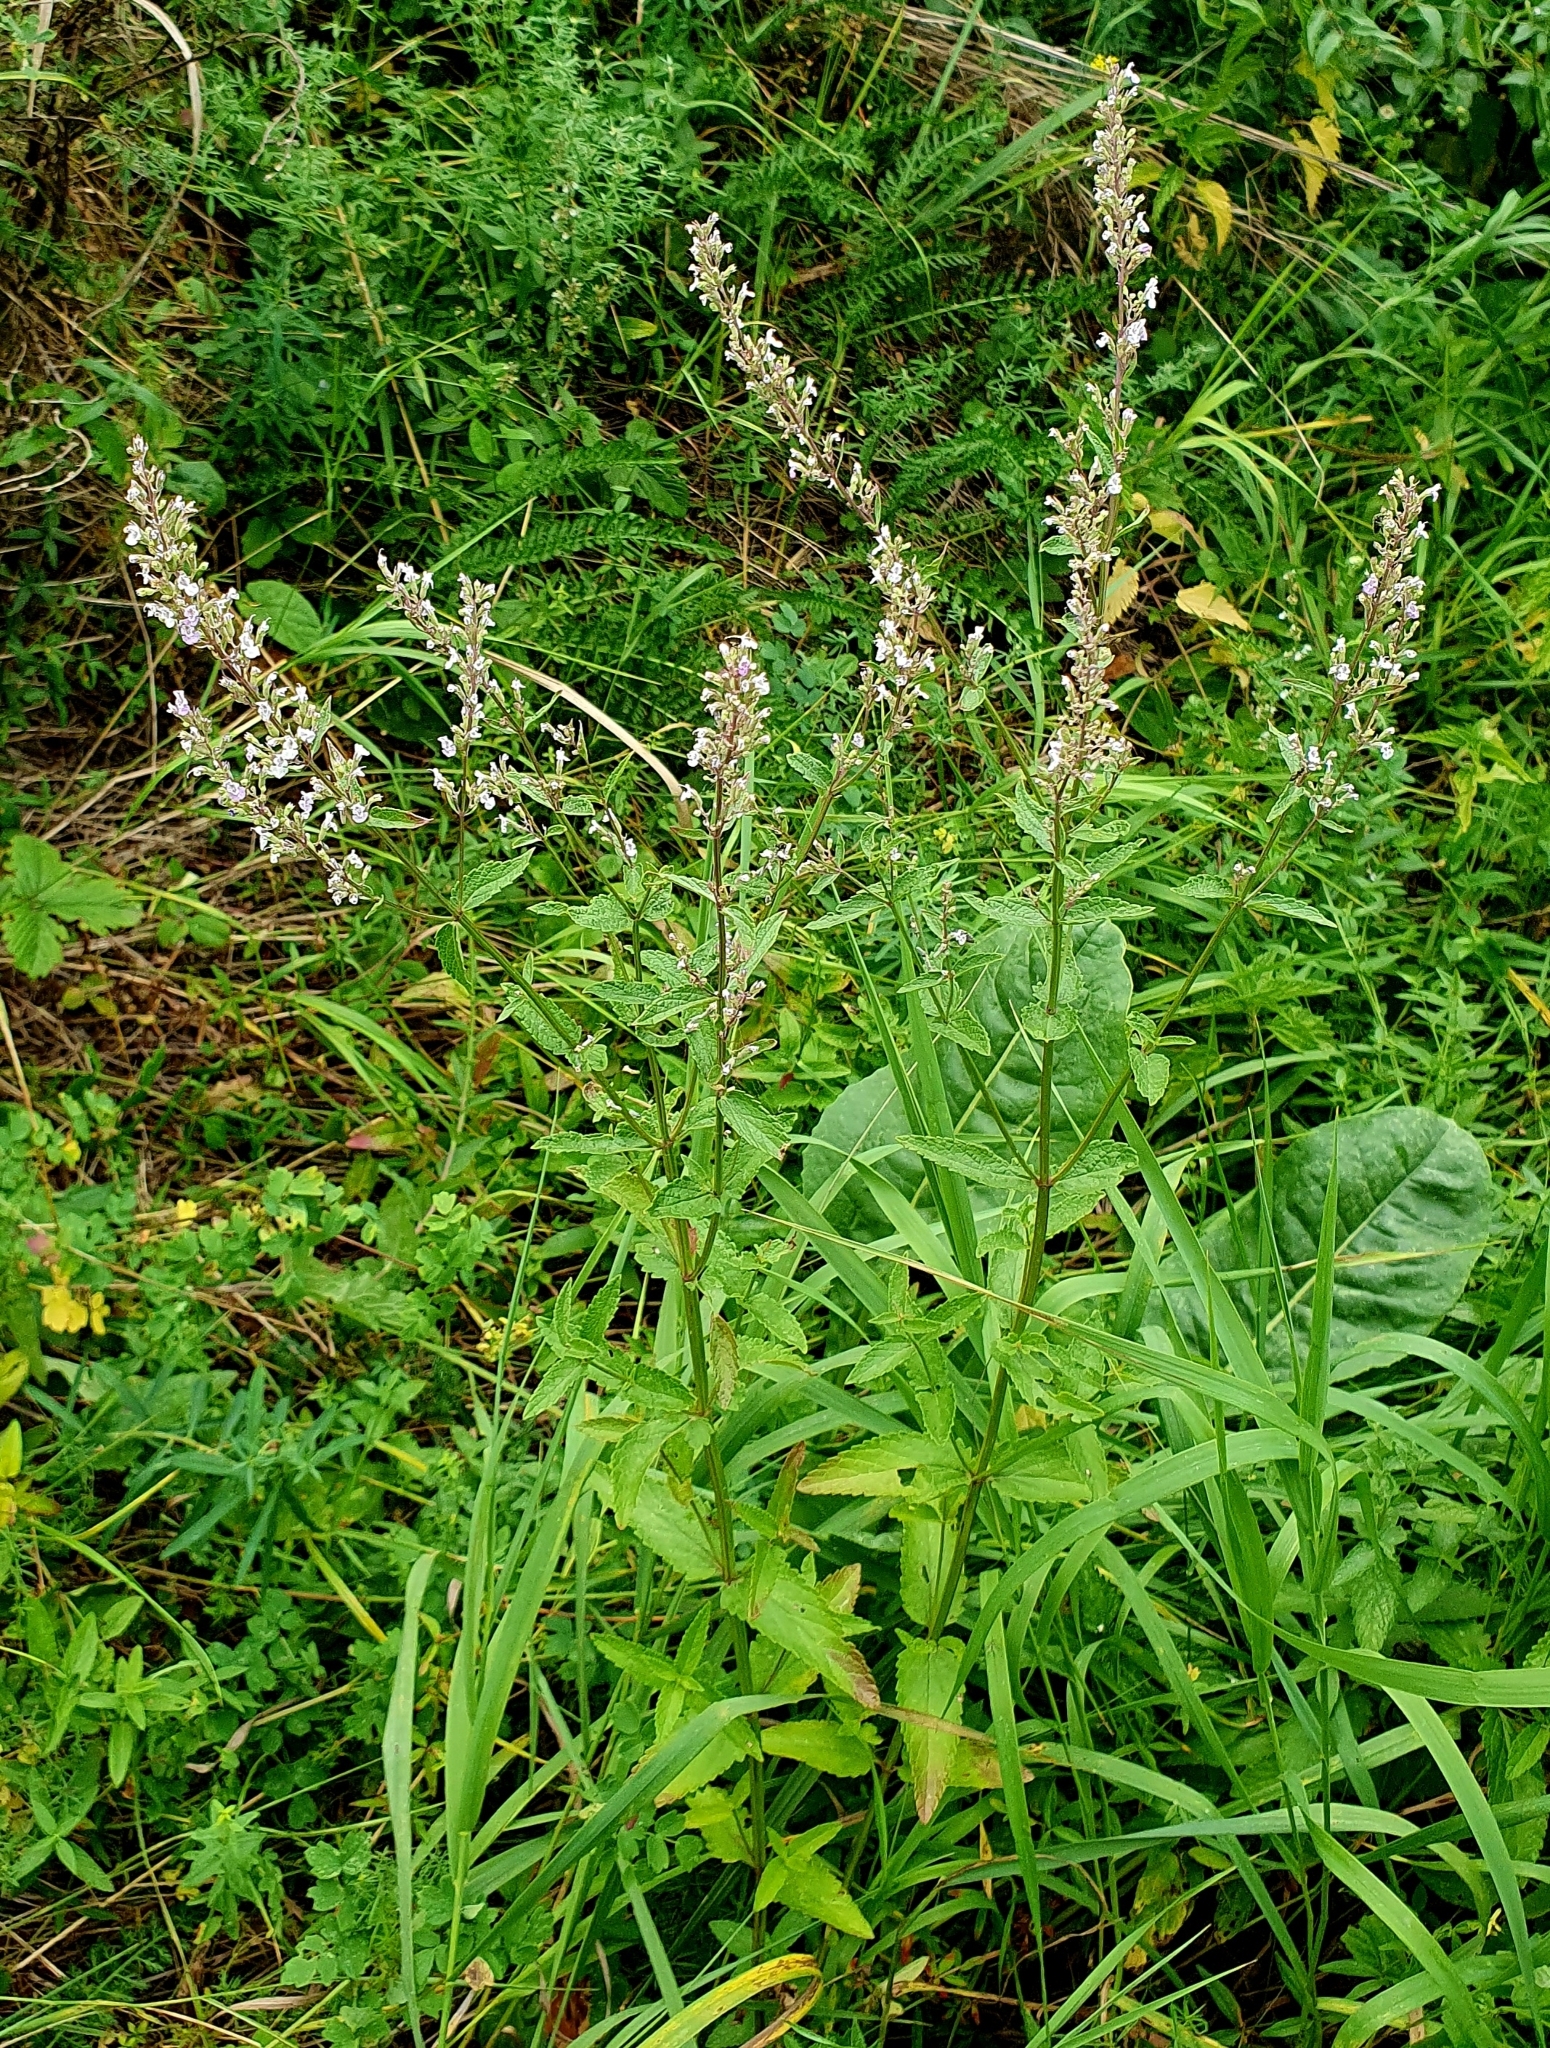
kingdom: Plantae
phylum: Tracheophyta
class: Magnoliopsida
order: Lamiales
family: Lamiaceae
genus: Nepeta
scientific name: Nepeta nuda
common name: Hairless catmint
